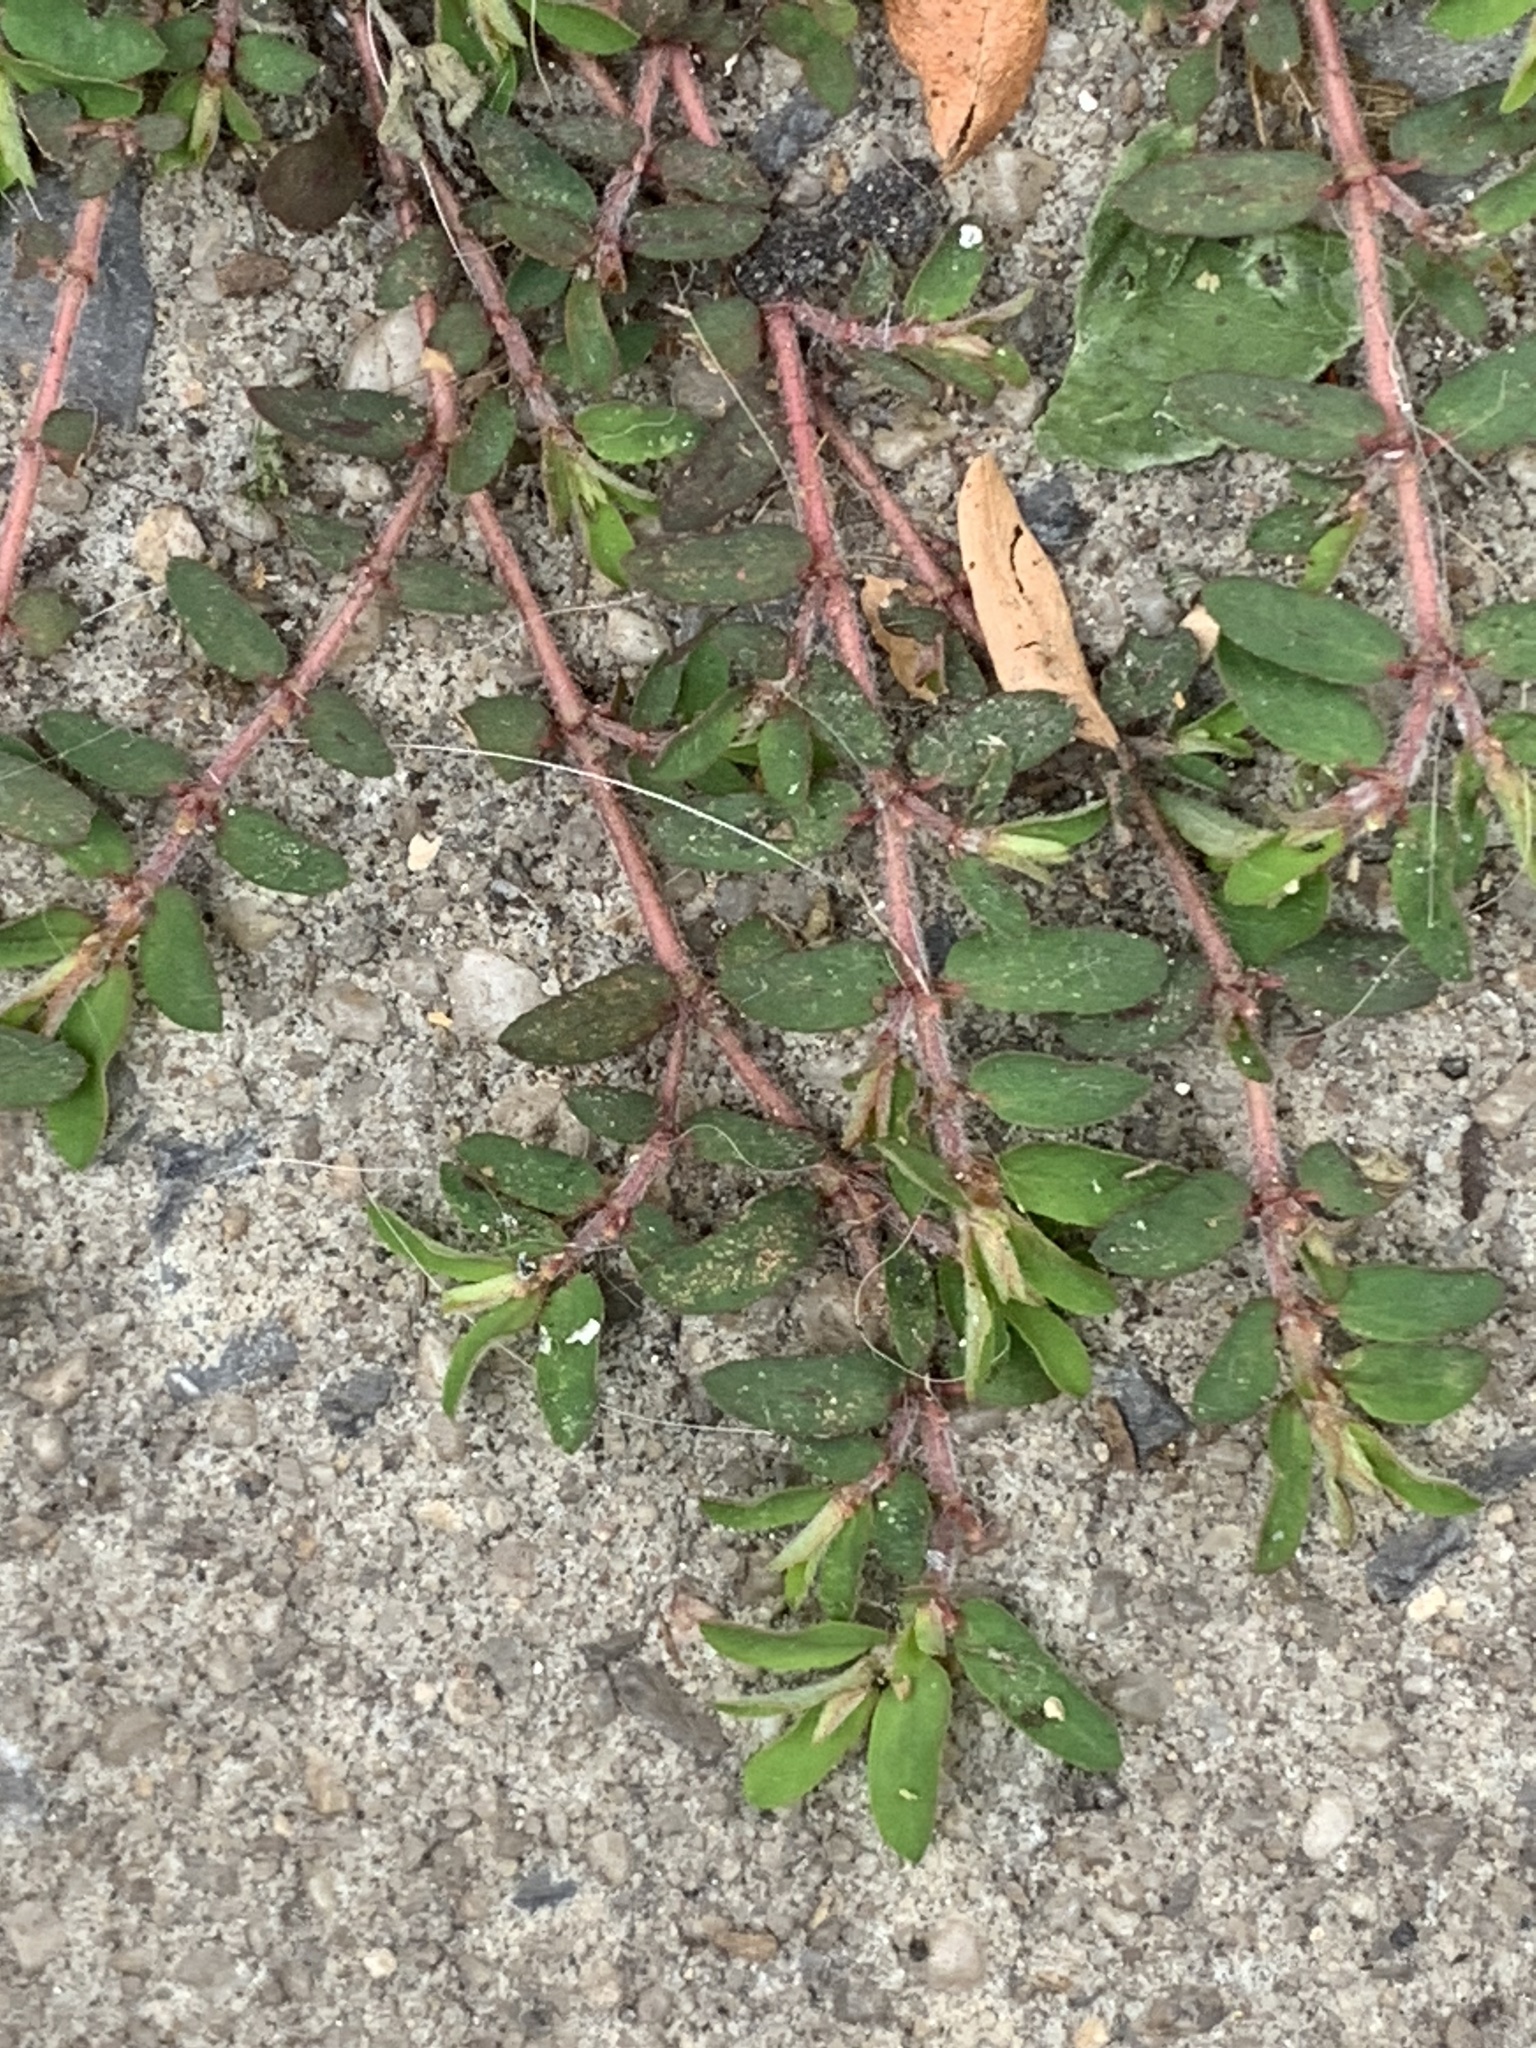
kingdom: Plantae
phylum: Tracheophyta
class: Magnoliopsida
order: Malpighiales
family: Euphorbiaceae
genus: Euphorbia
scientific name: Euphorbia maculata
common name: Spotted spurge
